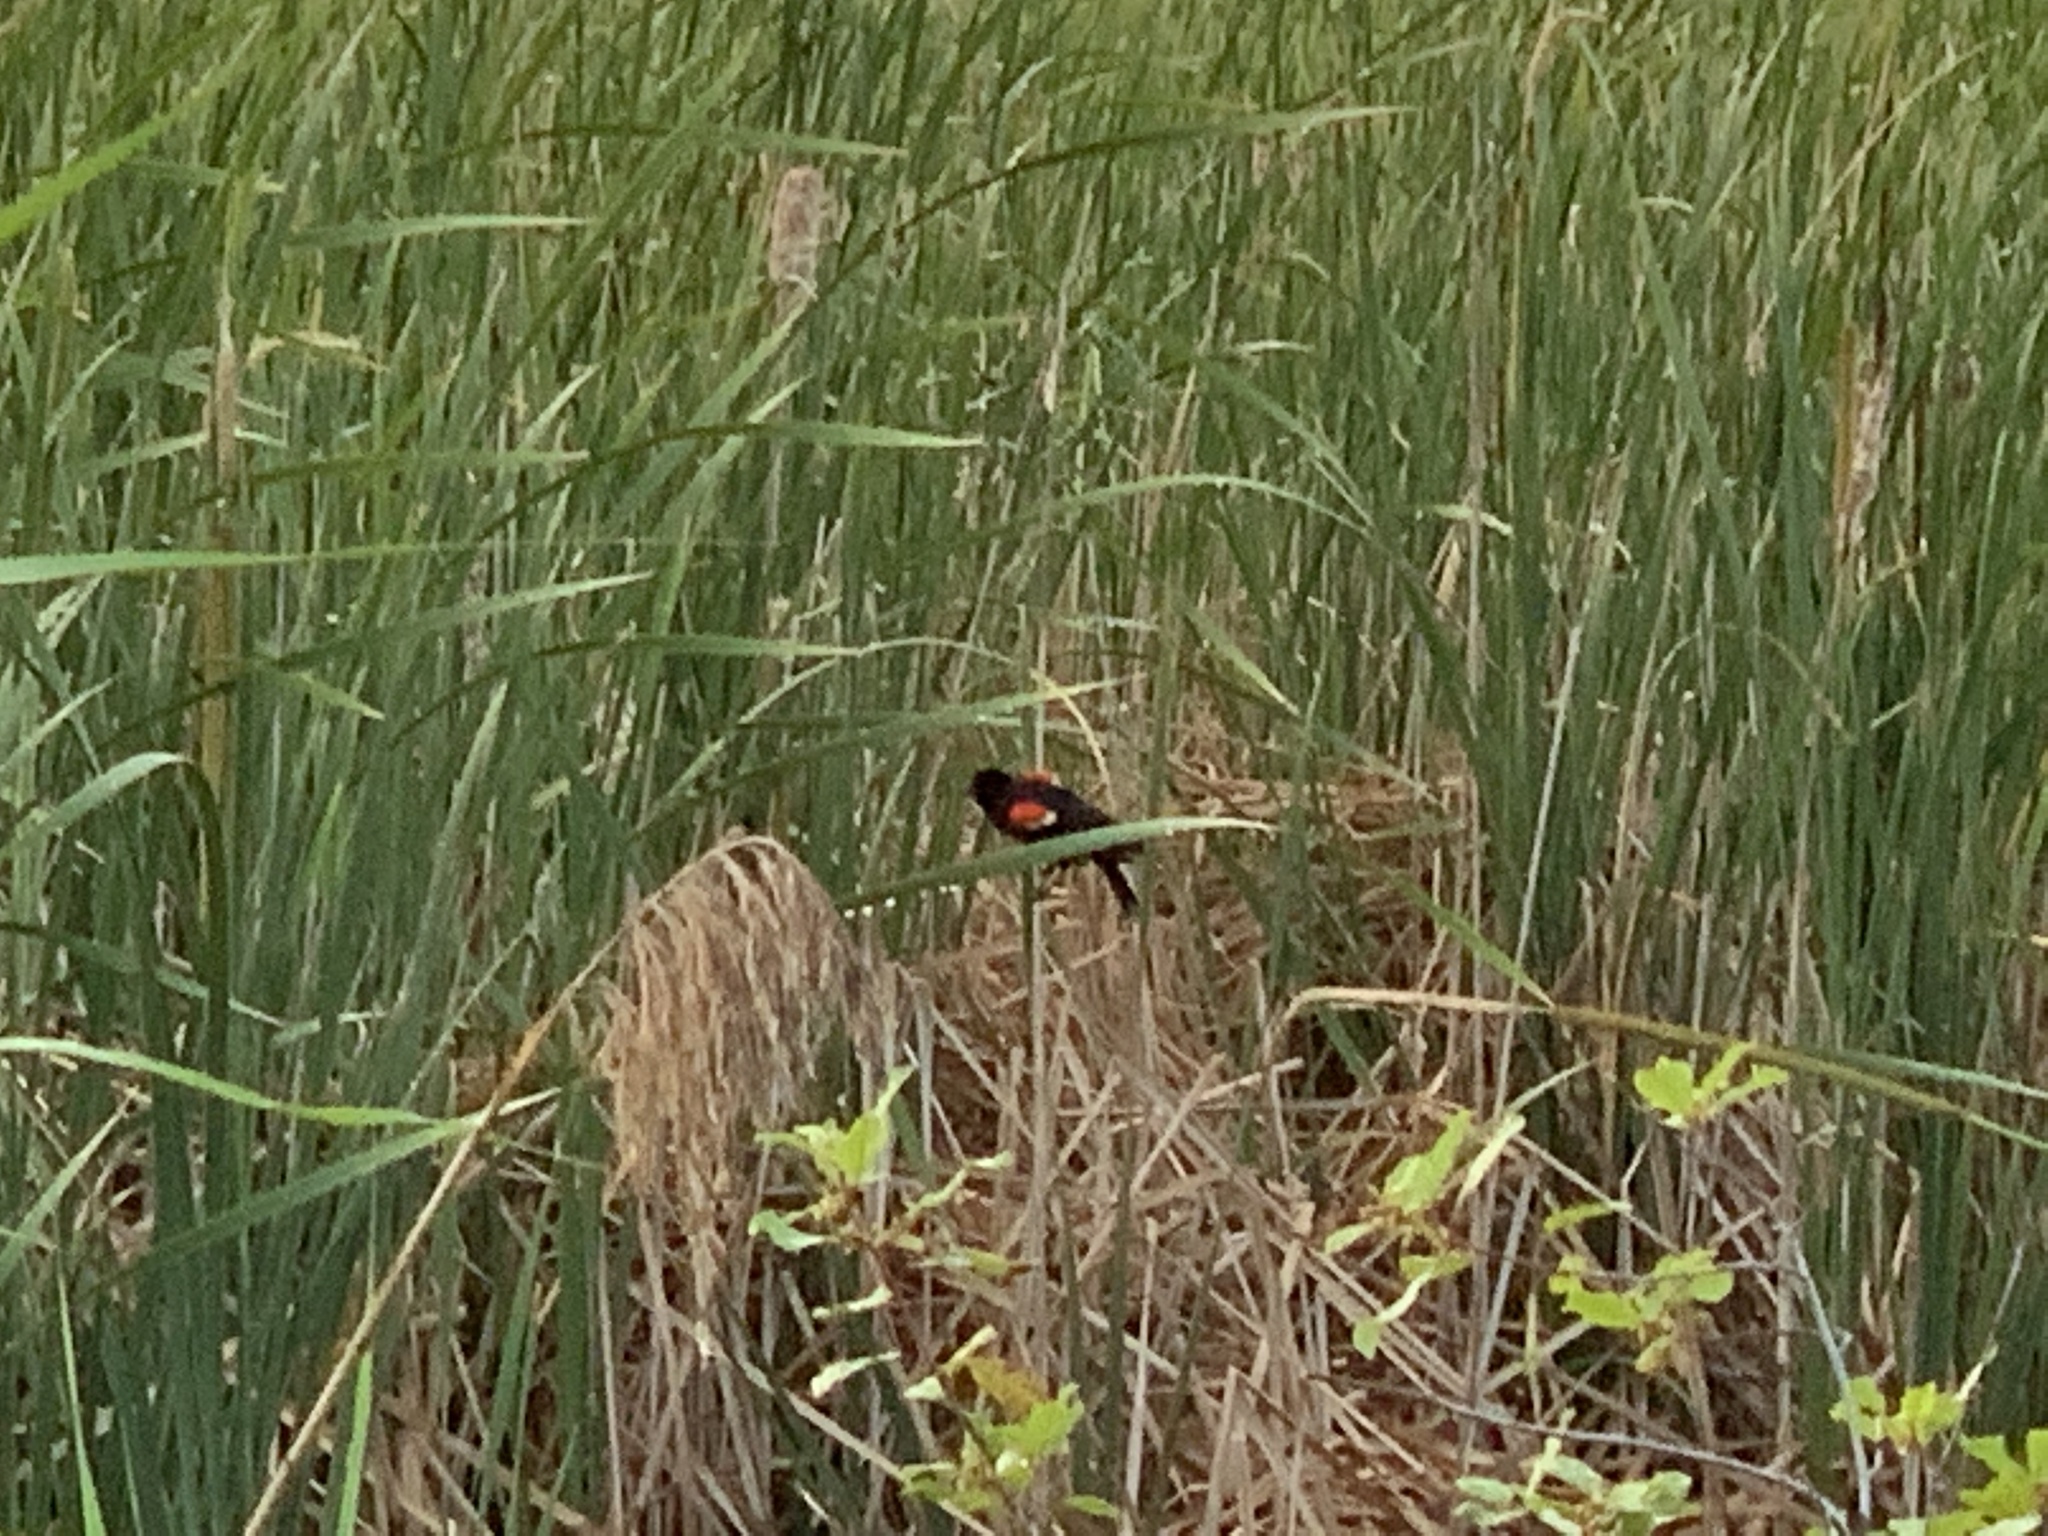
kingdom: Animalia
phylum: Chordata
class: Aves
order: Passeriformes
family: Icteridae
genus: Agelaius
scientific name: Agelaius phoeniceus
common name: Red-winged blackbird
